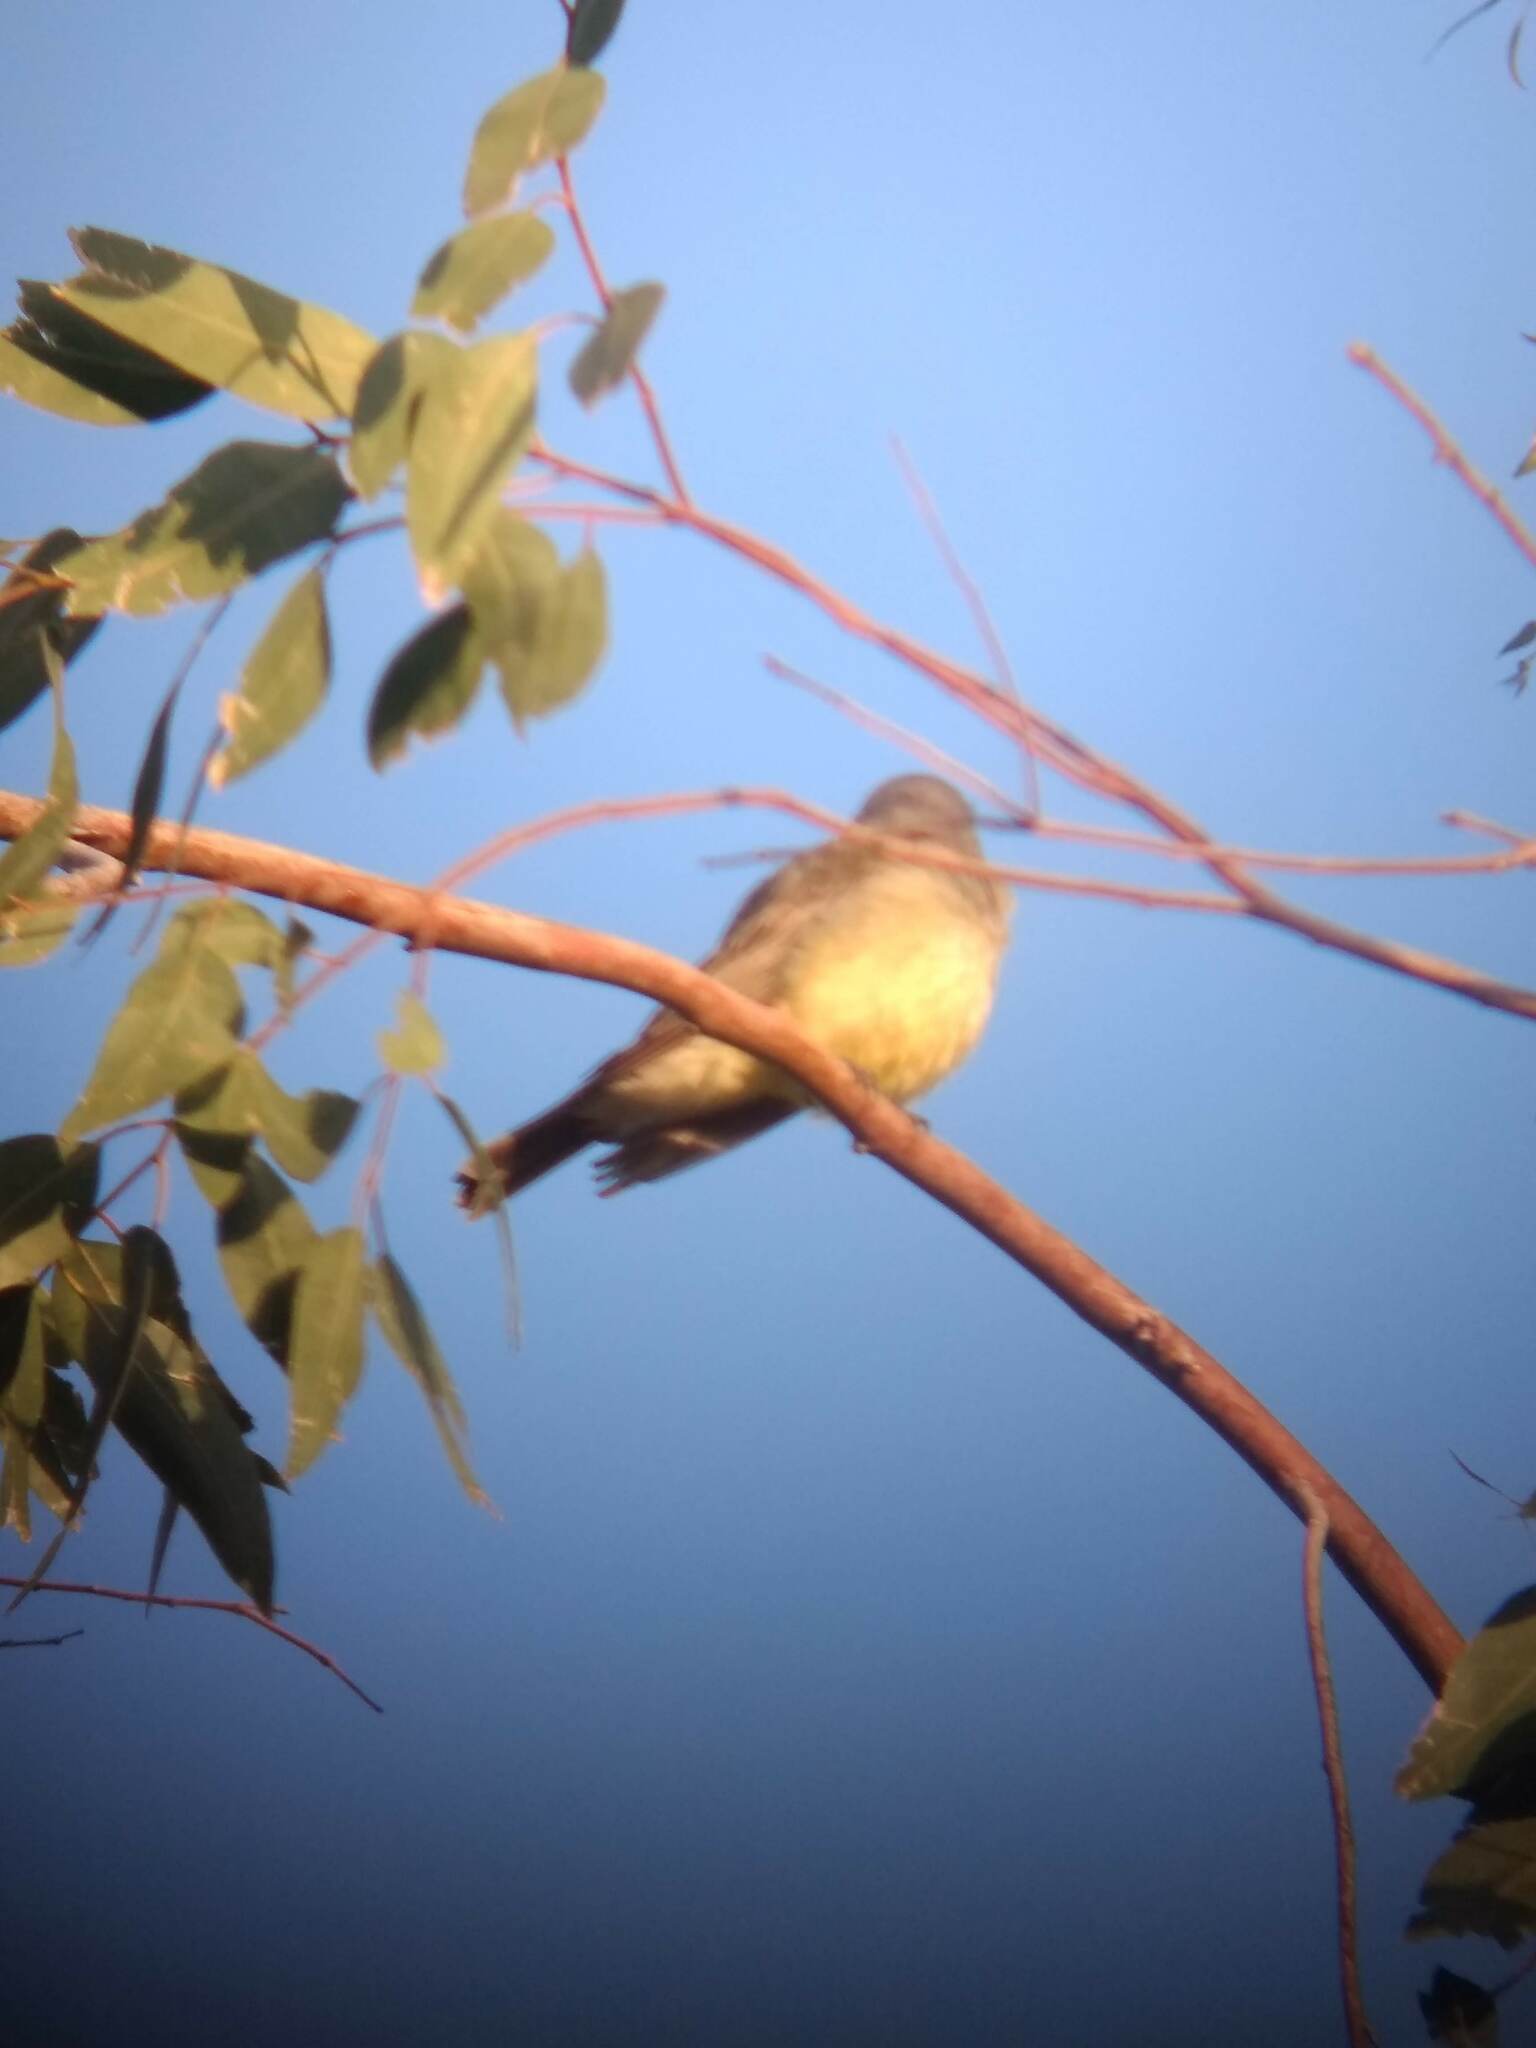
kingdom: Animalia
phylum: Chordata
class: Aves
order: Passeriformes
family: Tyrannidae
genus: Tyrannus
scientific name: Tyrannus vociferans
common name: Cassin's kingbird
